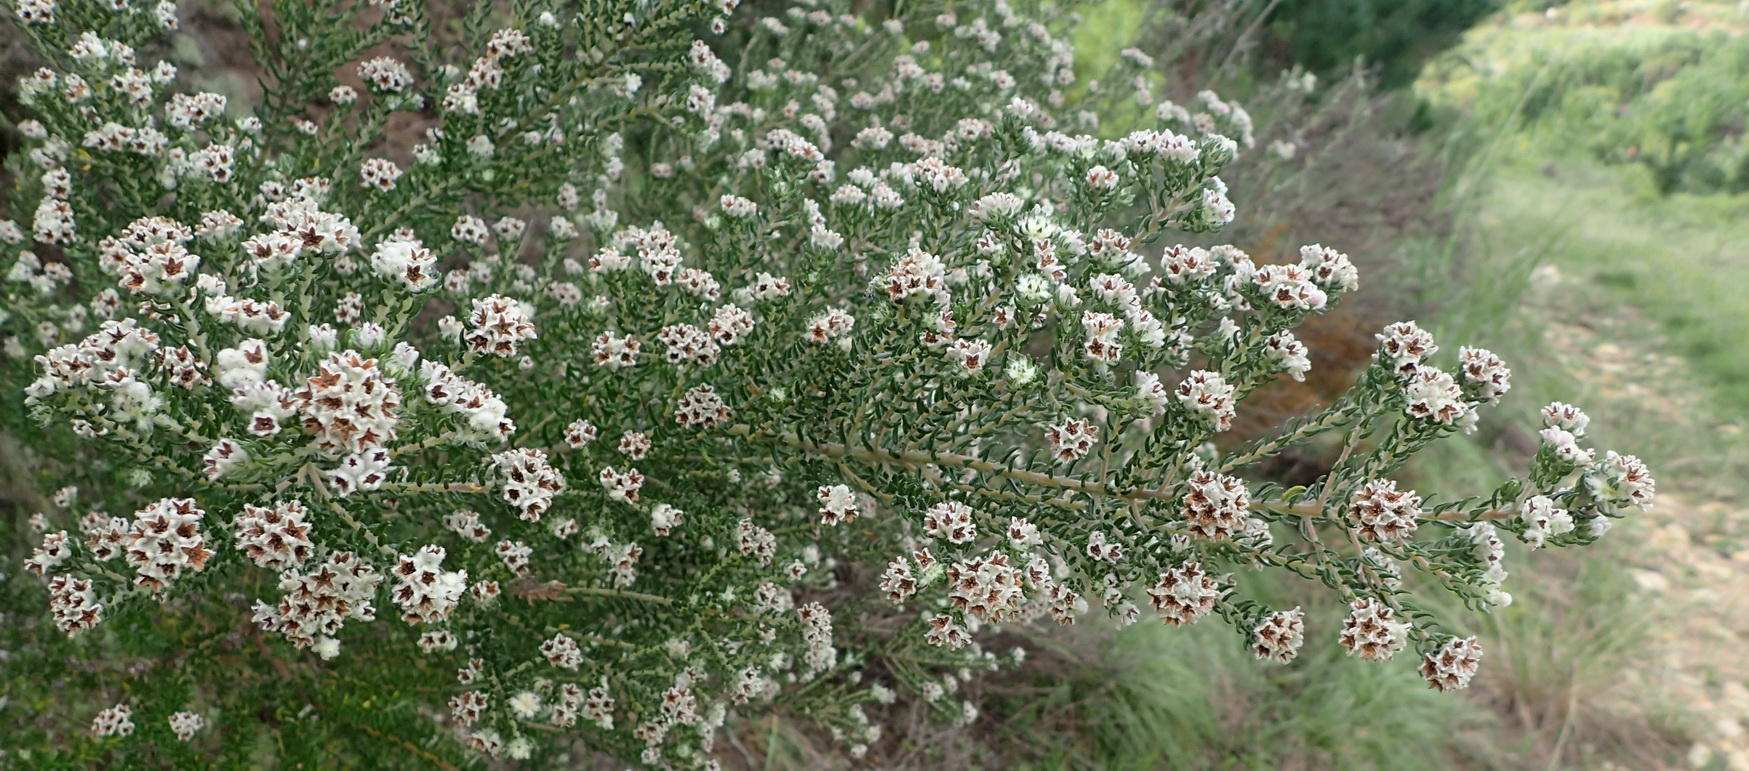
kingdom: Plantae
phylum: Tracheophyta
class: Magnoliopsida
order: Rosales
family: Rhamnaceae
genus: Phylica
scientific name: Phylica purpurea
